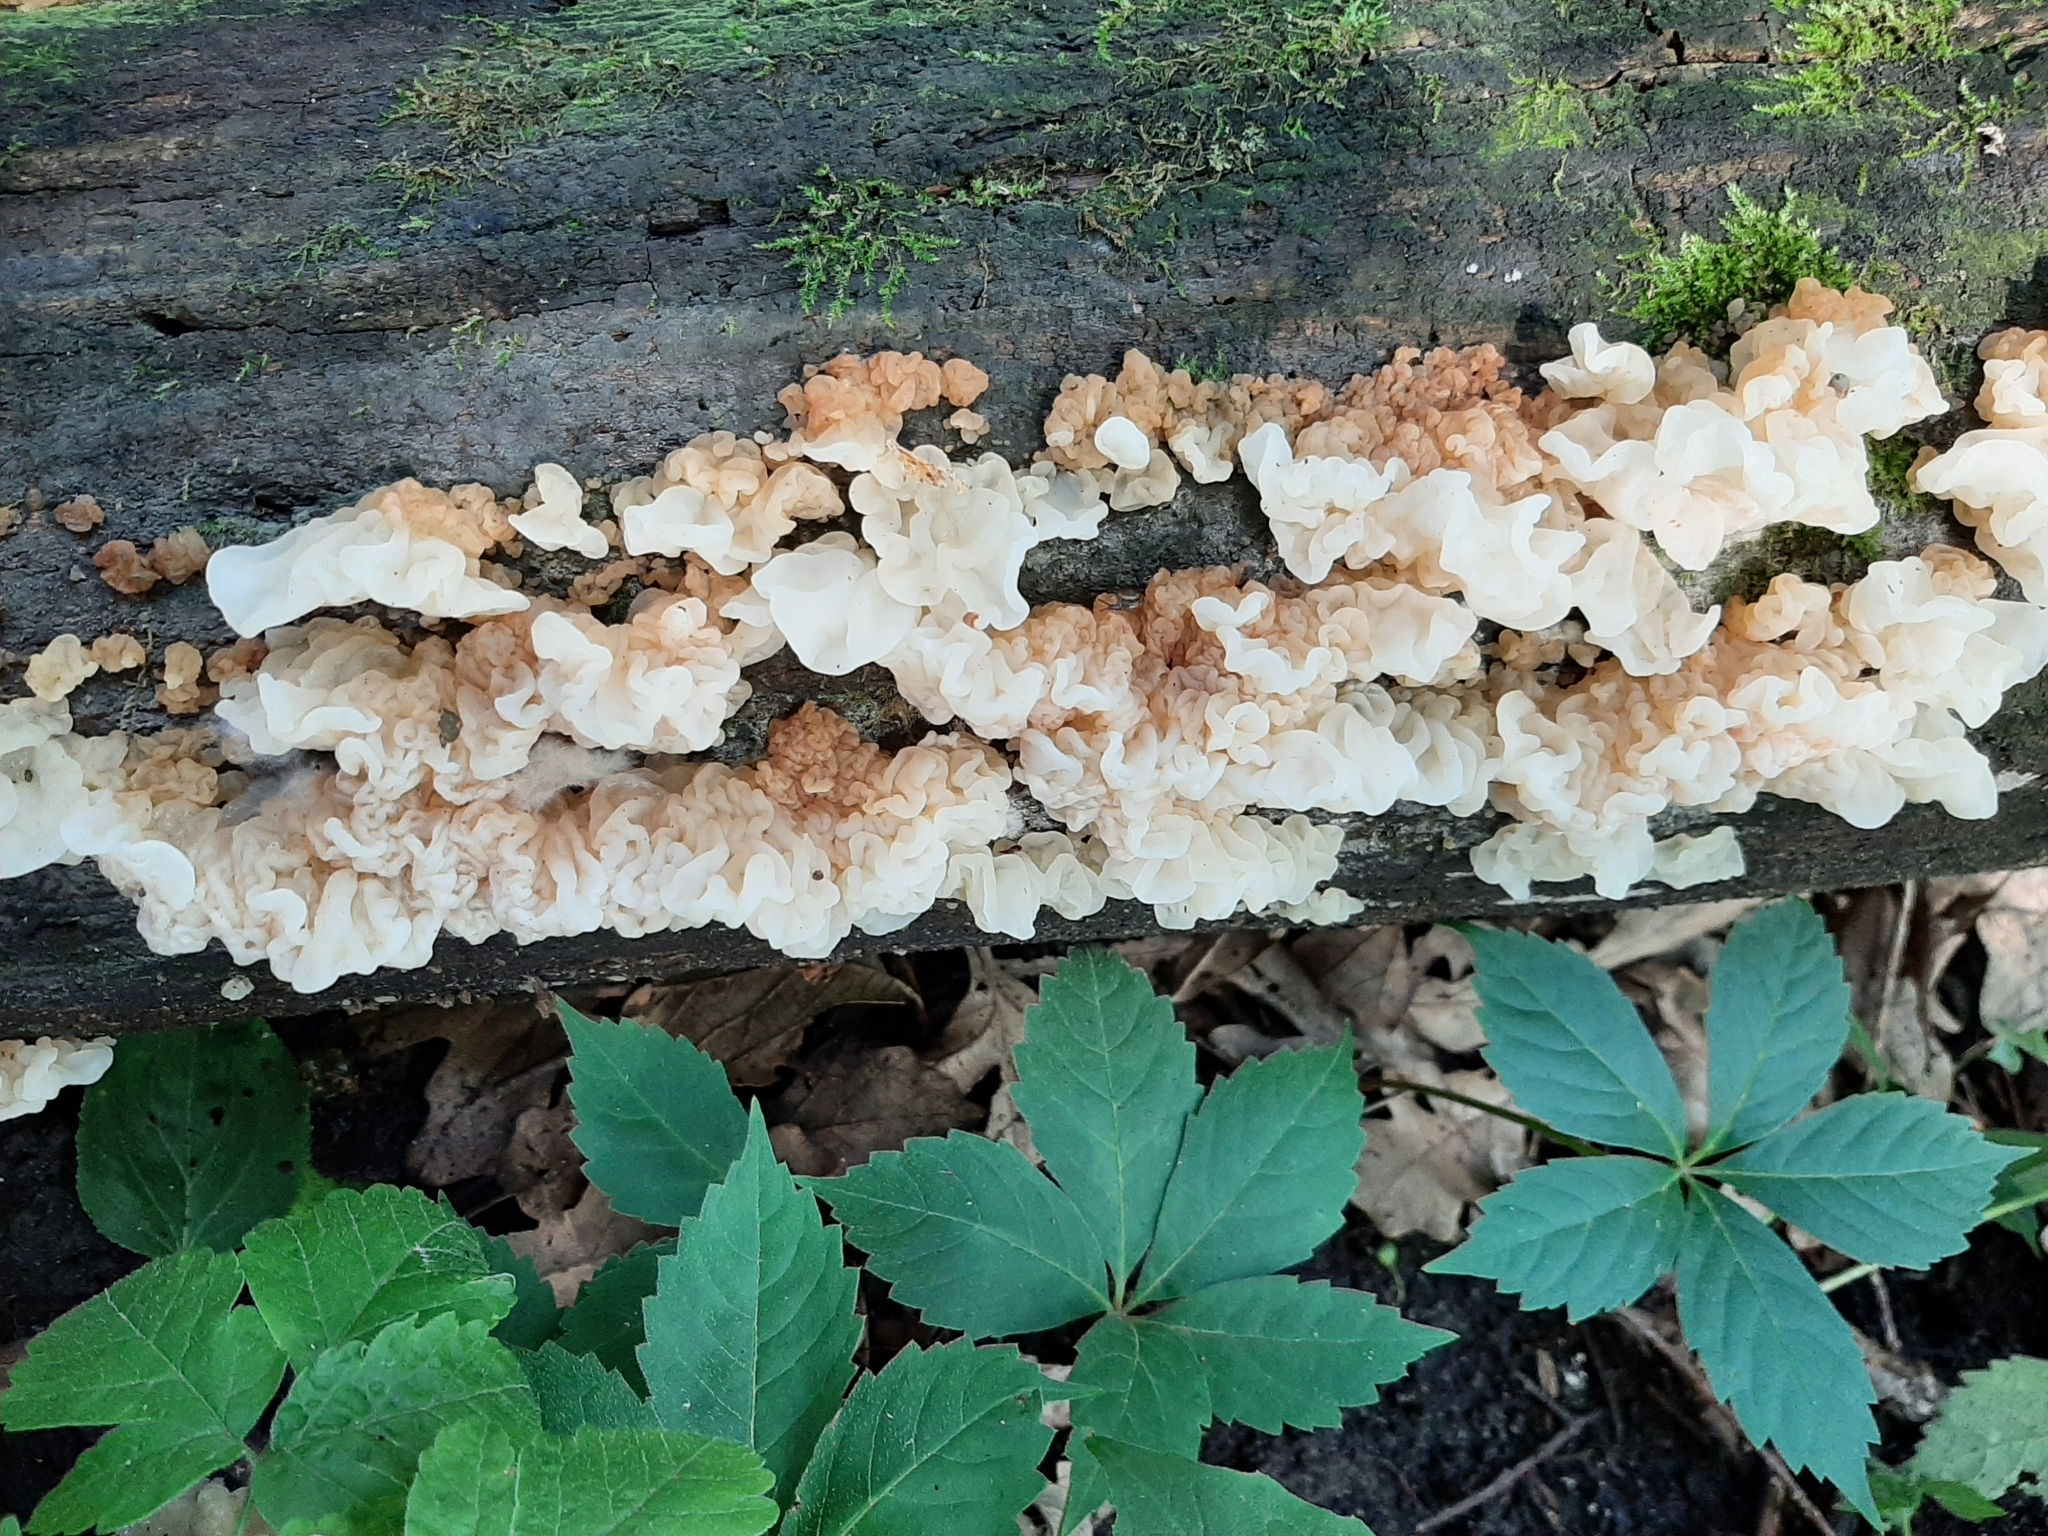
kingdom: Fungi
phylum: Basidiomycota
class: Agaricomycetes
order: Auriculariales
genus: Ductifera
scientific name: Ductifera pululahuana
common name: White jelly fungus
